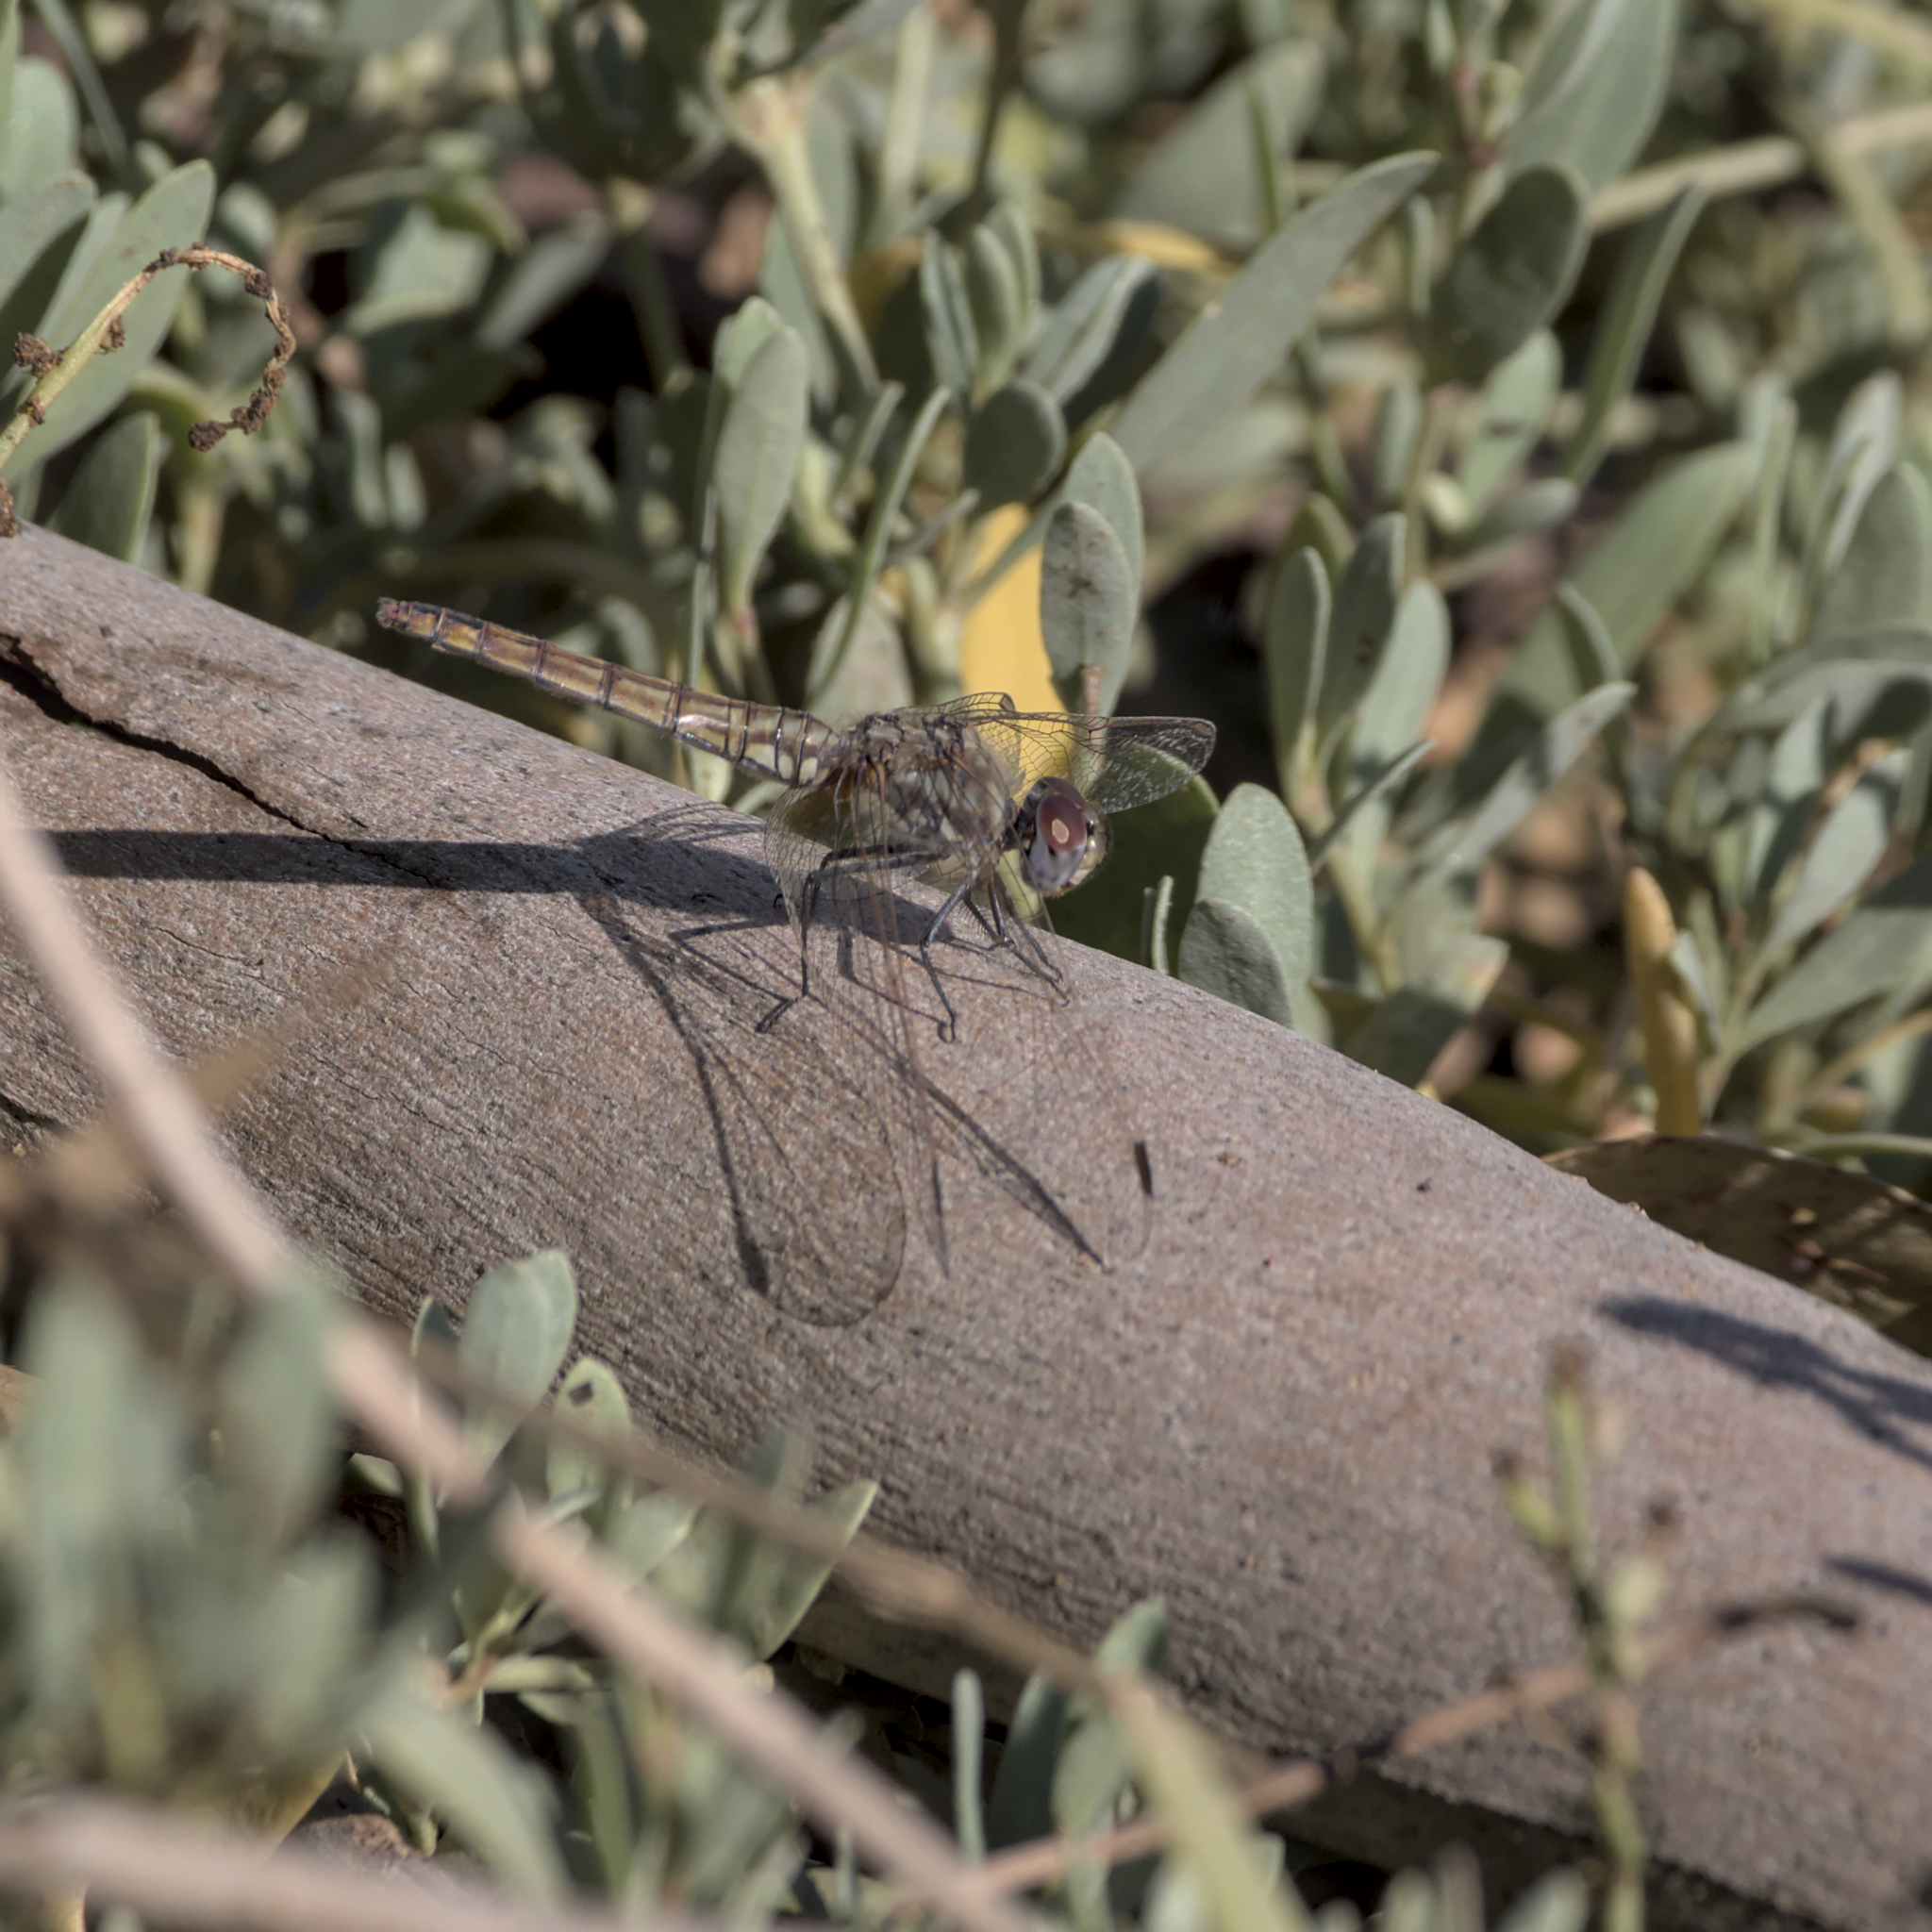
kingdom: Animalia
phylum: Arthropoda
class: Insecta
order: Odonata
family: Libellulidae
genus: Trithemis
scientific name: Trithemis annulata
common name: Violet dropwing
